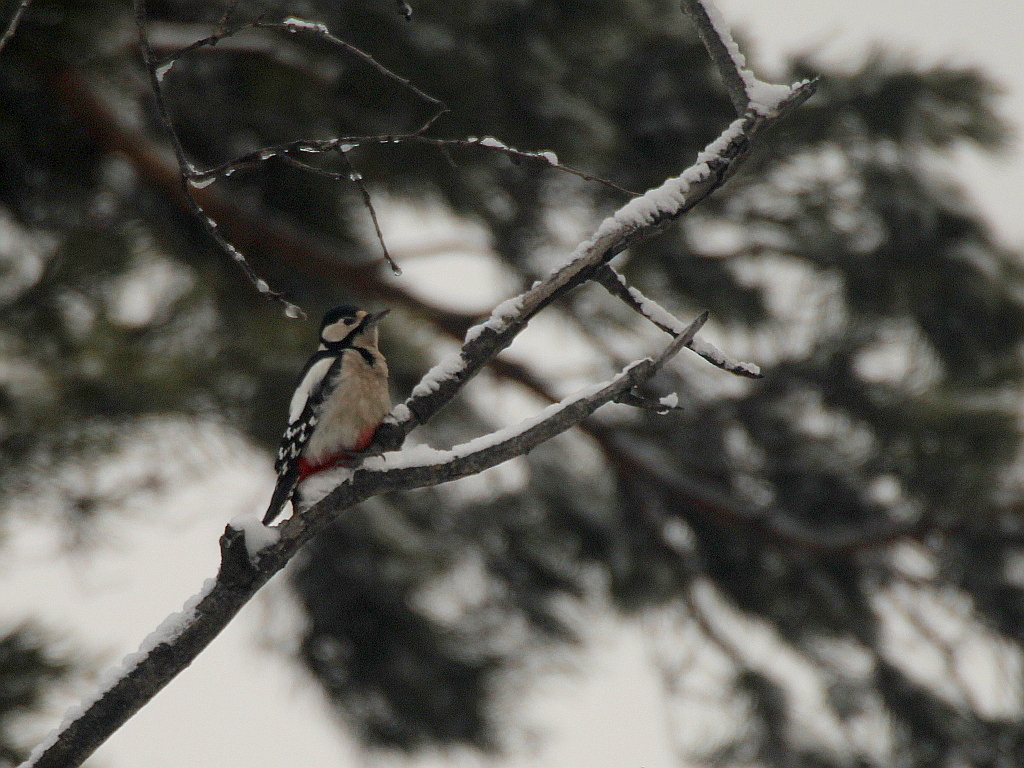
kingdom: Animalia
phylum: Chordata
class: Aves
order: Piciformes
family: Picidae
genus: Dendrocopos
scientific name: Dendrocopos major
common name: Great spotted woodpecker
